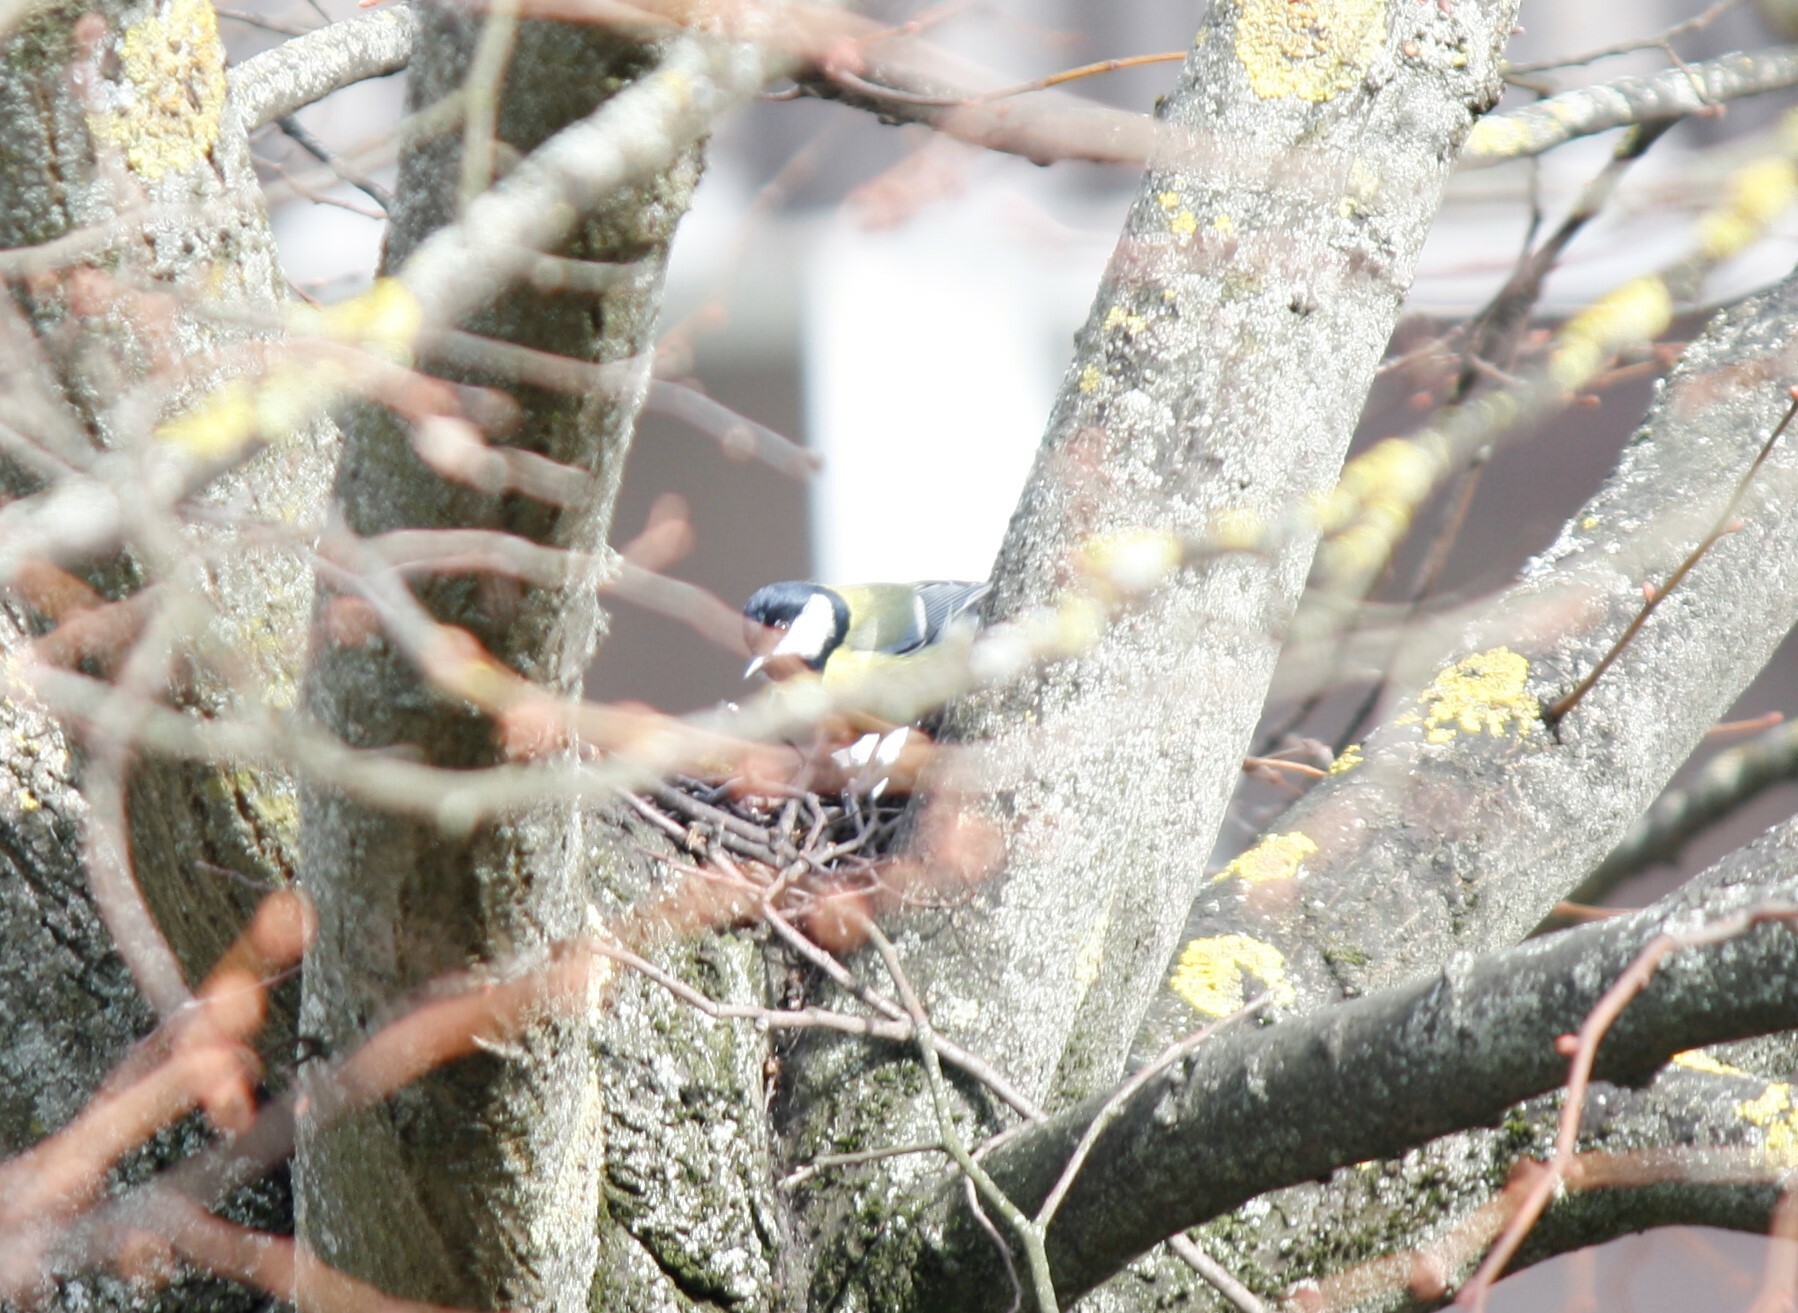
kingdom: Animalia
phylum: Chordata
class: Aves
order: Passeriformes
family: Paridae
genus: Parus
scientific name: Parus major
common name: Great tit
